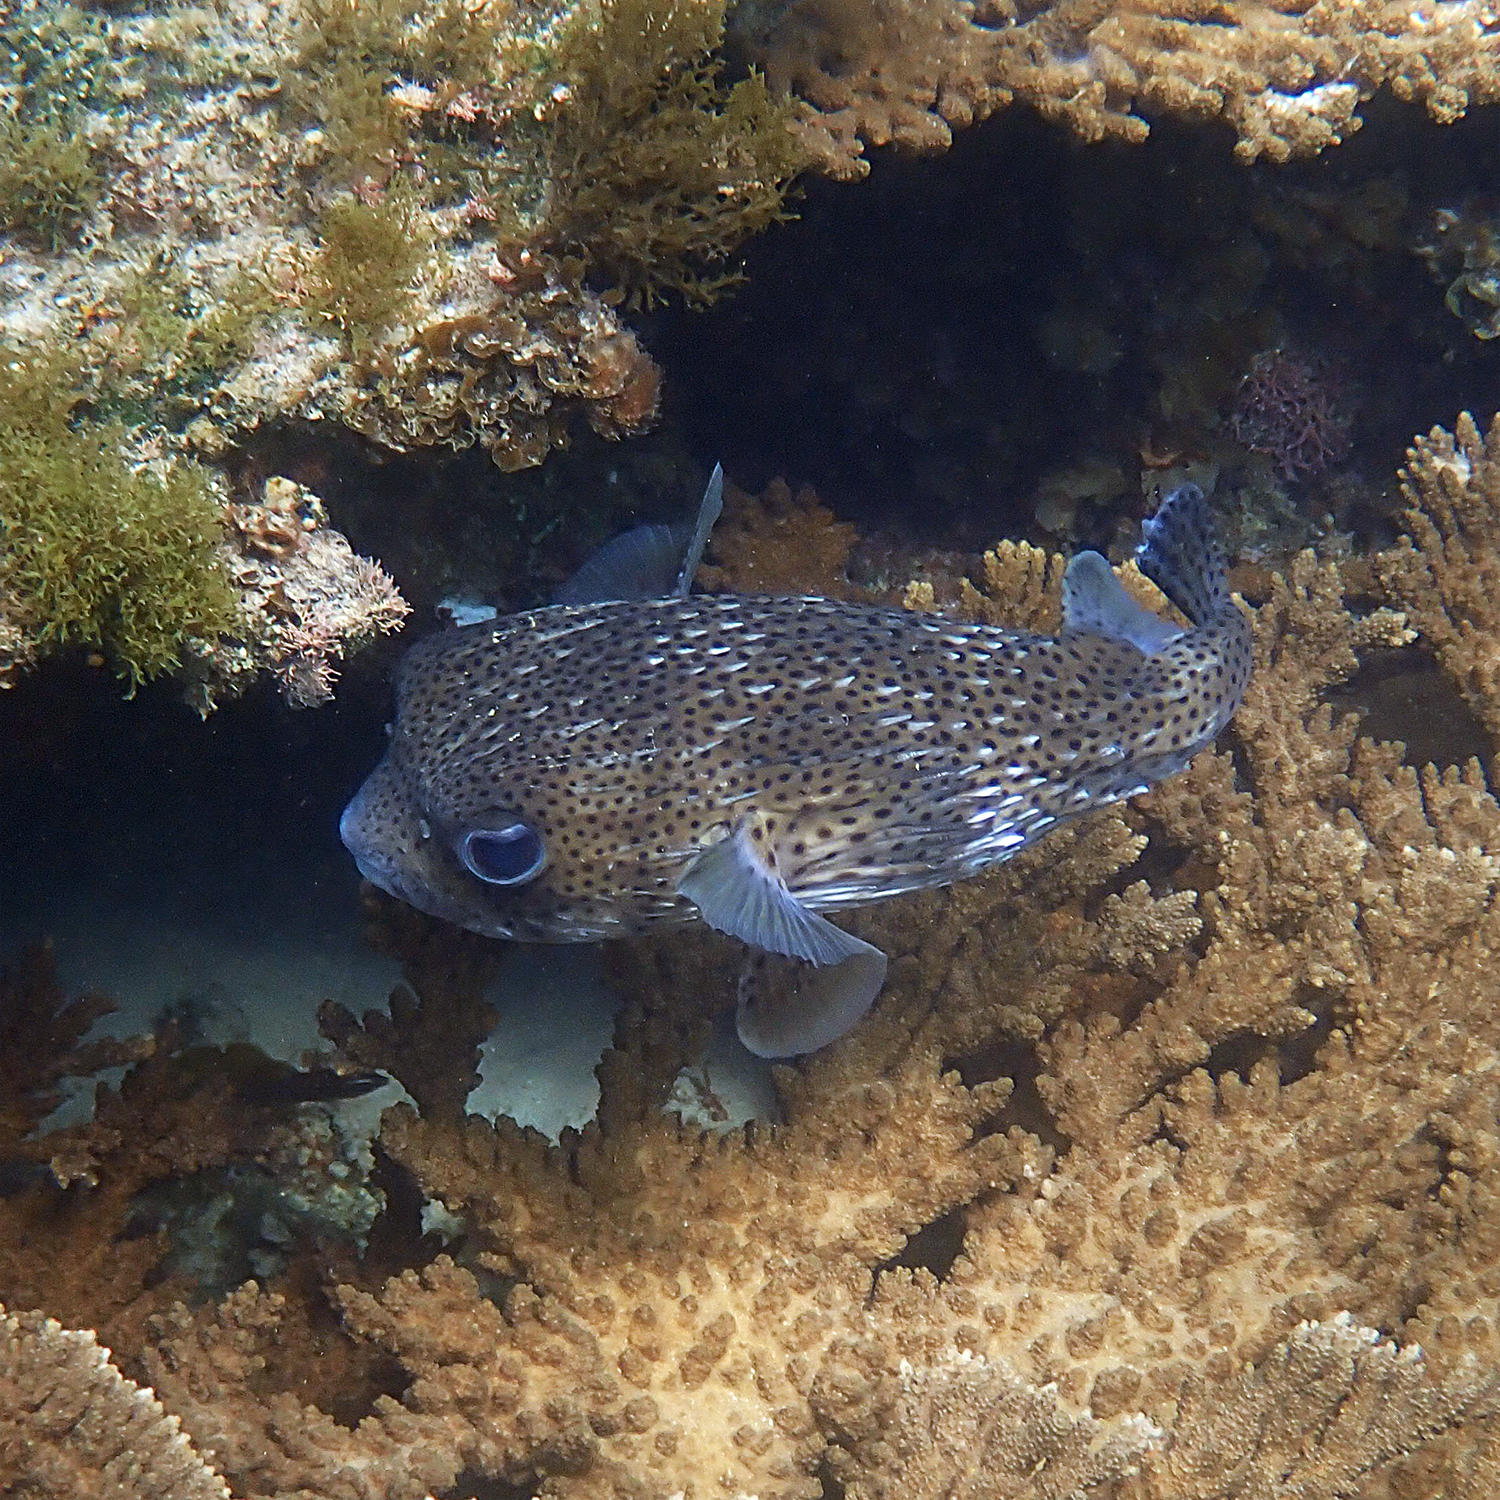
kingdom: Animalia
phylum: Chordata
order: Tetraodontiformes
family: Diodontidae
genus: Diodon
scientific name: Diodon hystrix
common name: Giant porcupinefish
